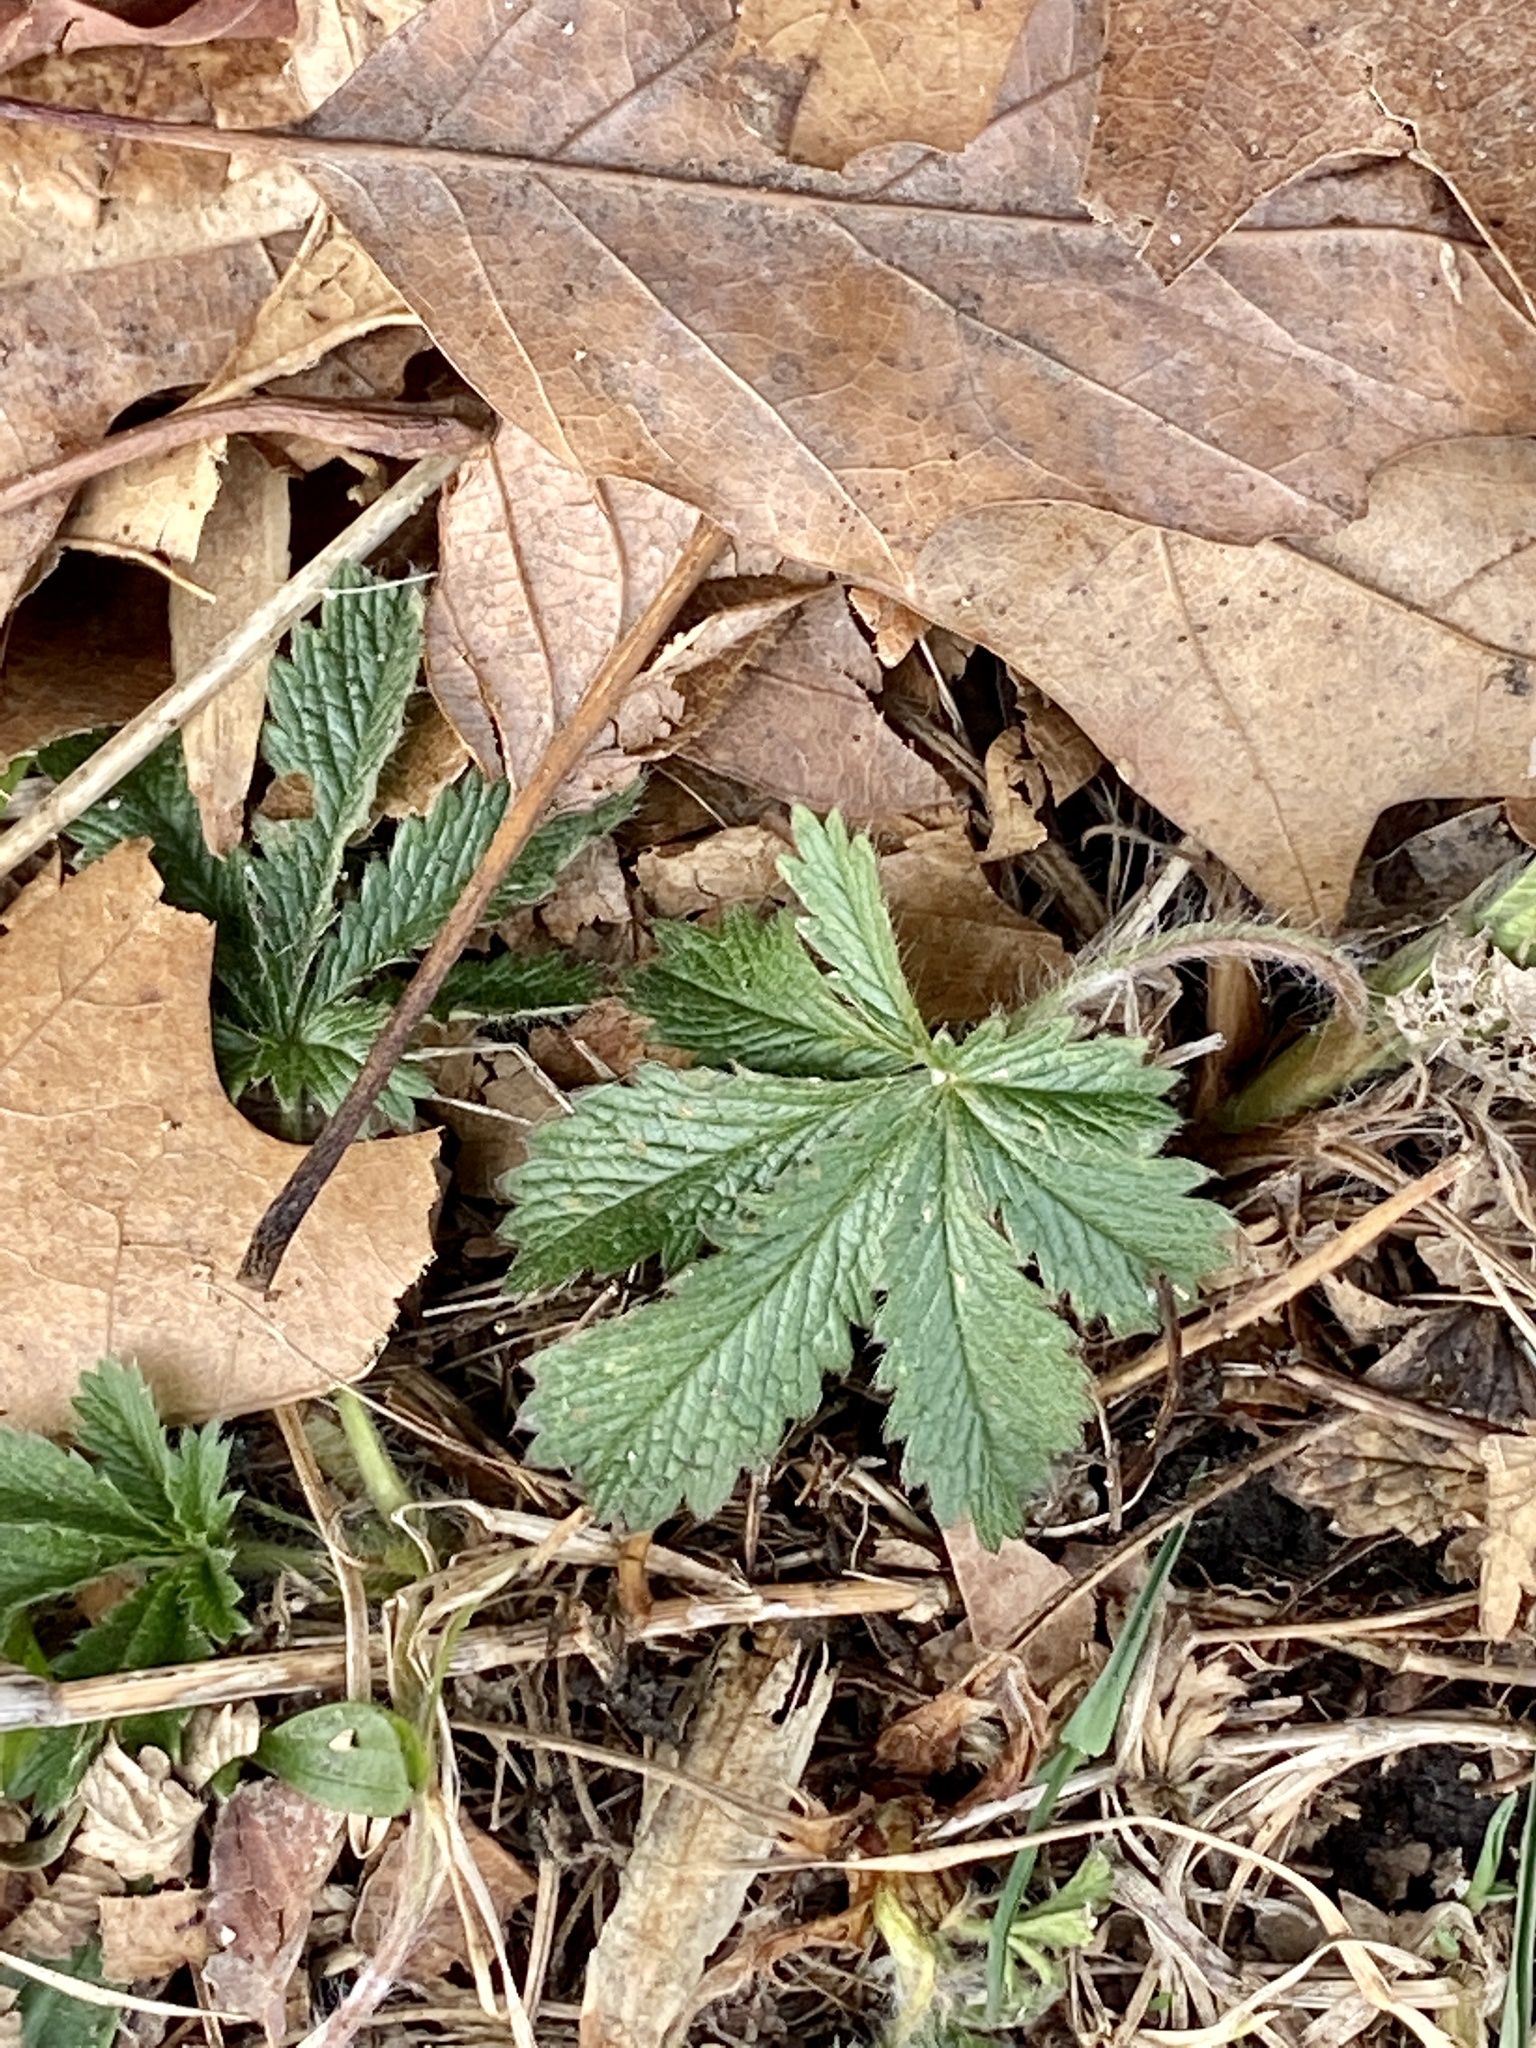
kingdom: Plantae
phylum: Tracheophyta
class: Magnoliopsida
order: Rosales
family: Rosaceae
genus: Potentilla
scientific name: Potentilla recta
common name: Sulphur cinquefoil
